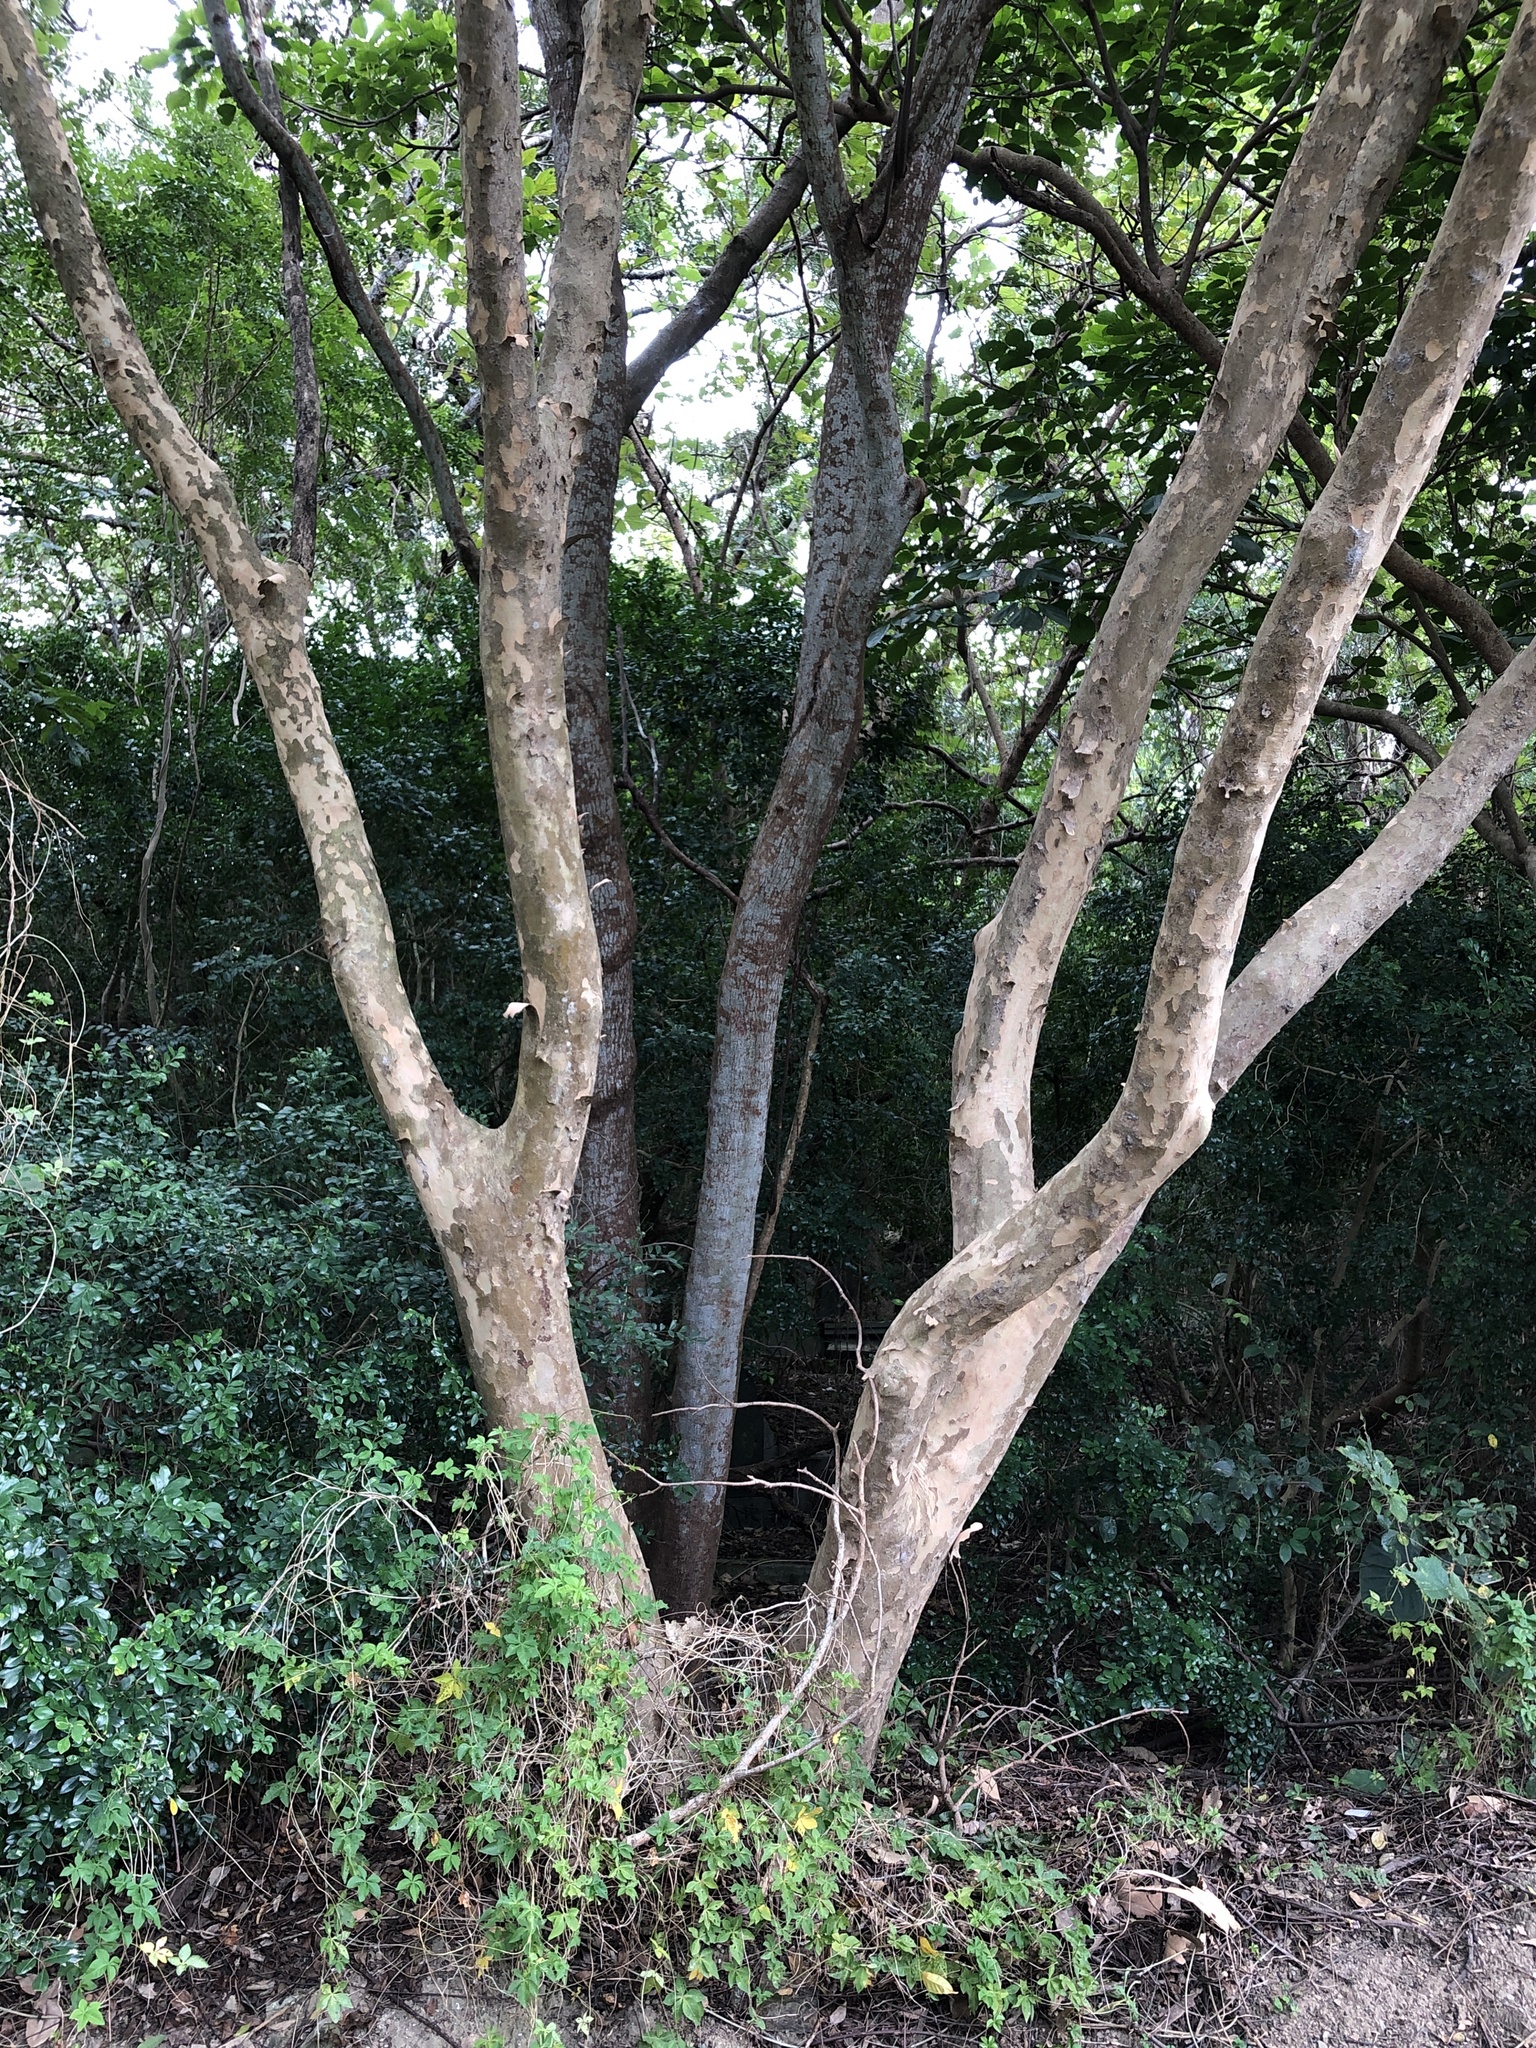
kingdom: Plantae
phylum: Tracheophyta
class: Magnoliopsida
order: Lamiales
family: Oleaceae
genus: Fraxinus
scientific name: Fraxinus griffithii
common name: Himalayan ash
